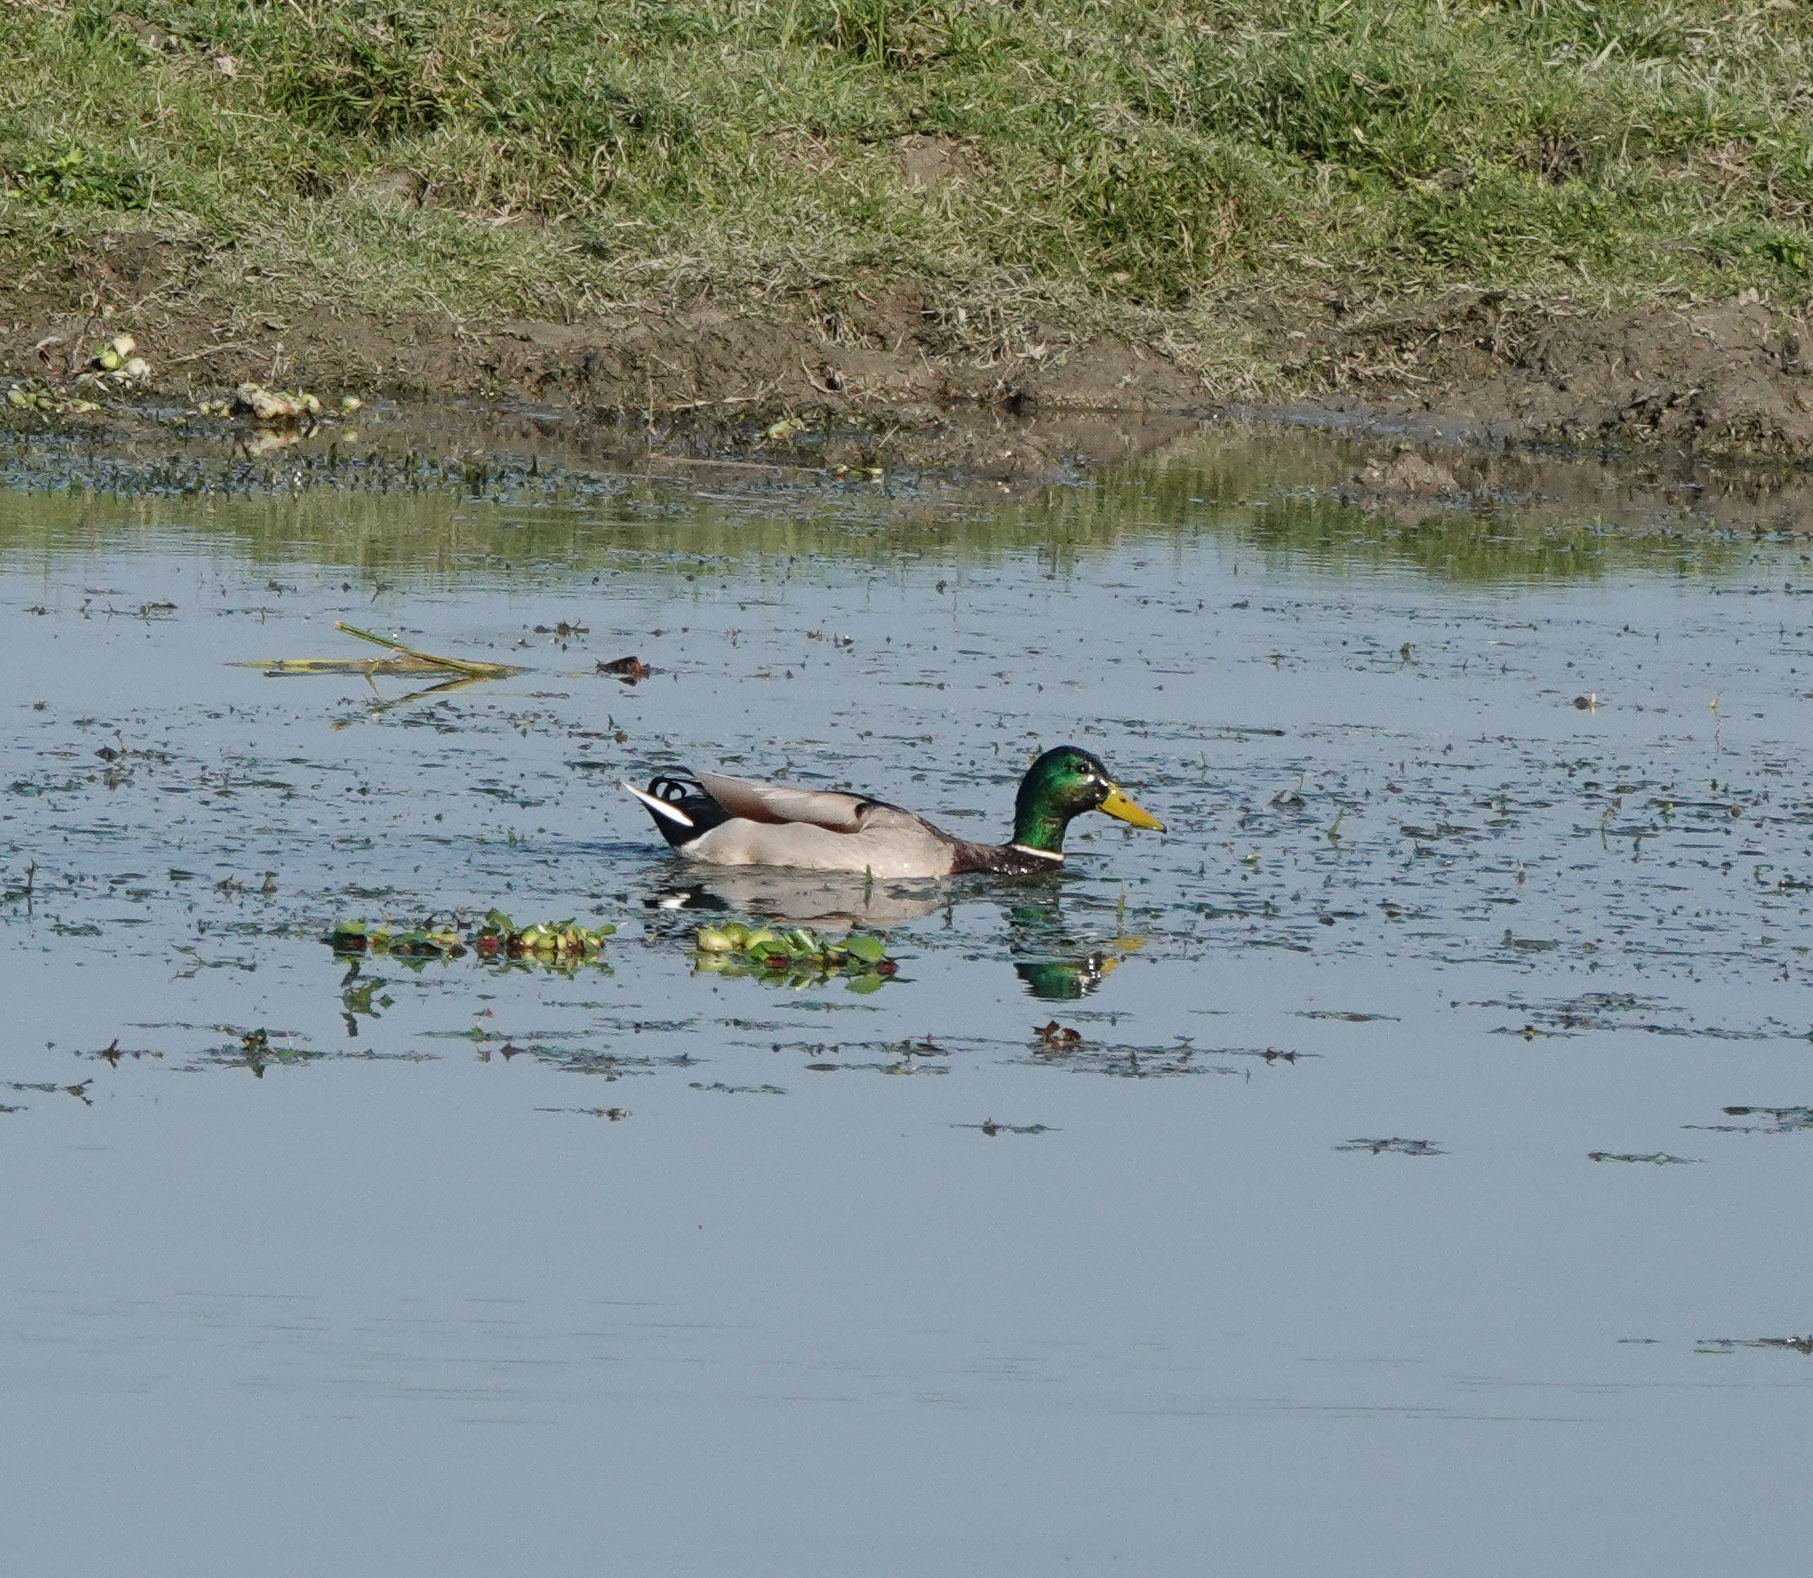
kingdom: Animalia
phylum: Chordata
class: Aves
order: Anseriformes
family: Anatidae
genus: Anas
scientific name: Anas platyrhynchos
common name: Mallard
